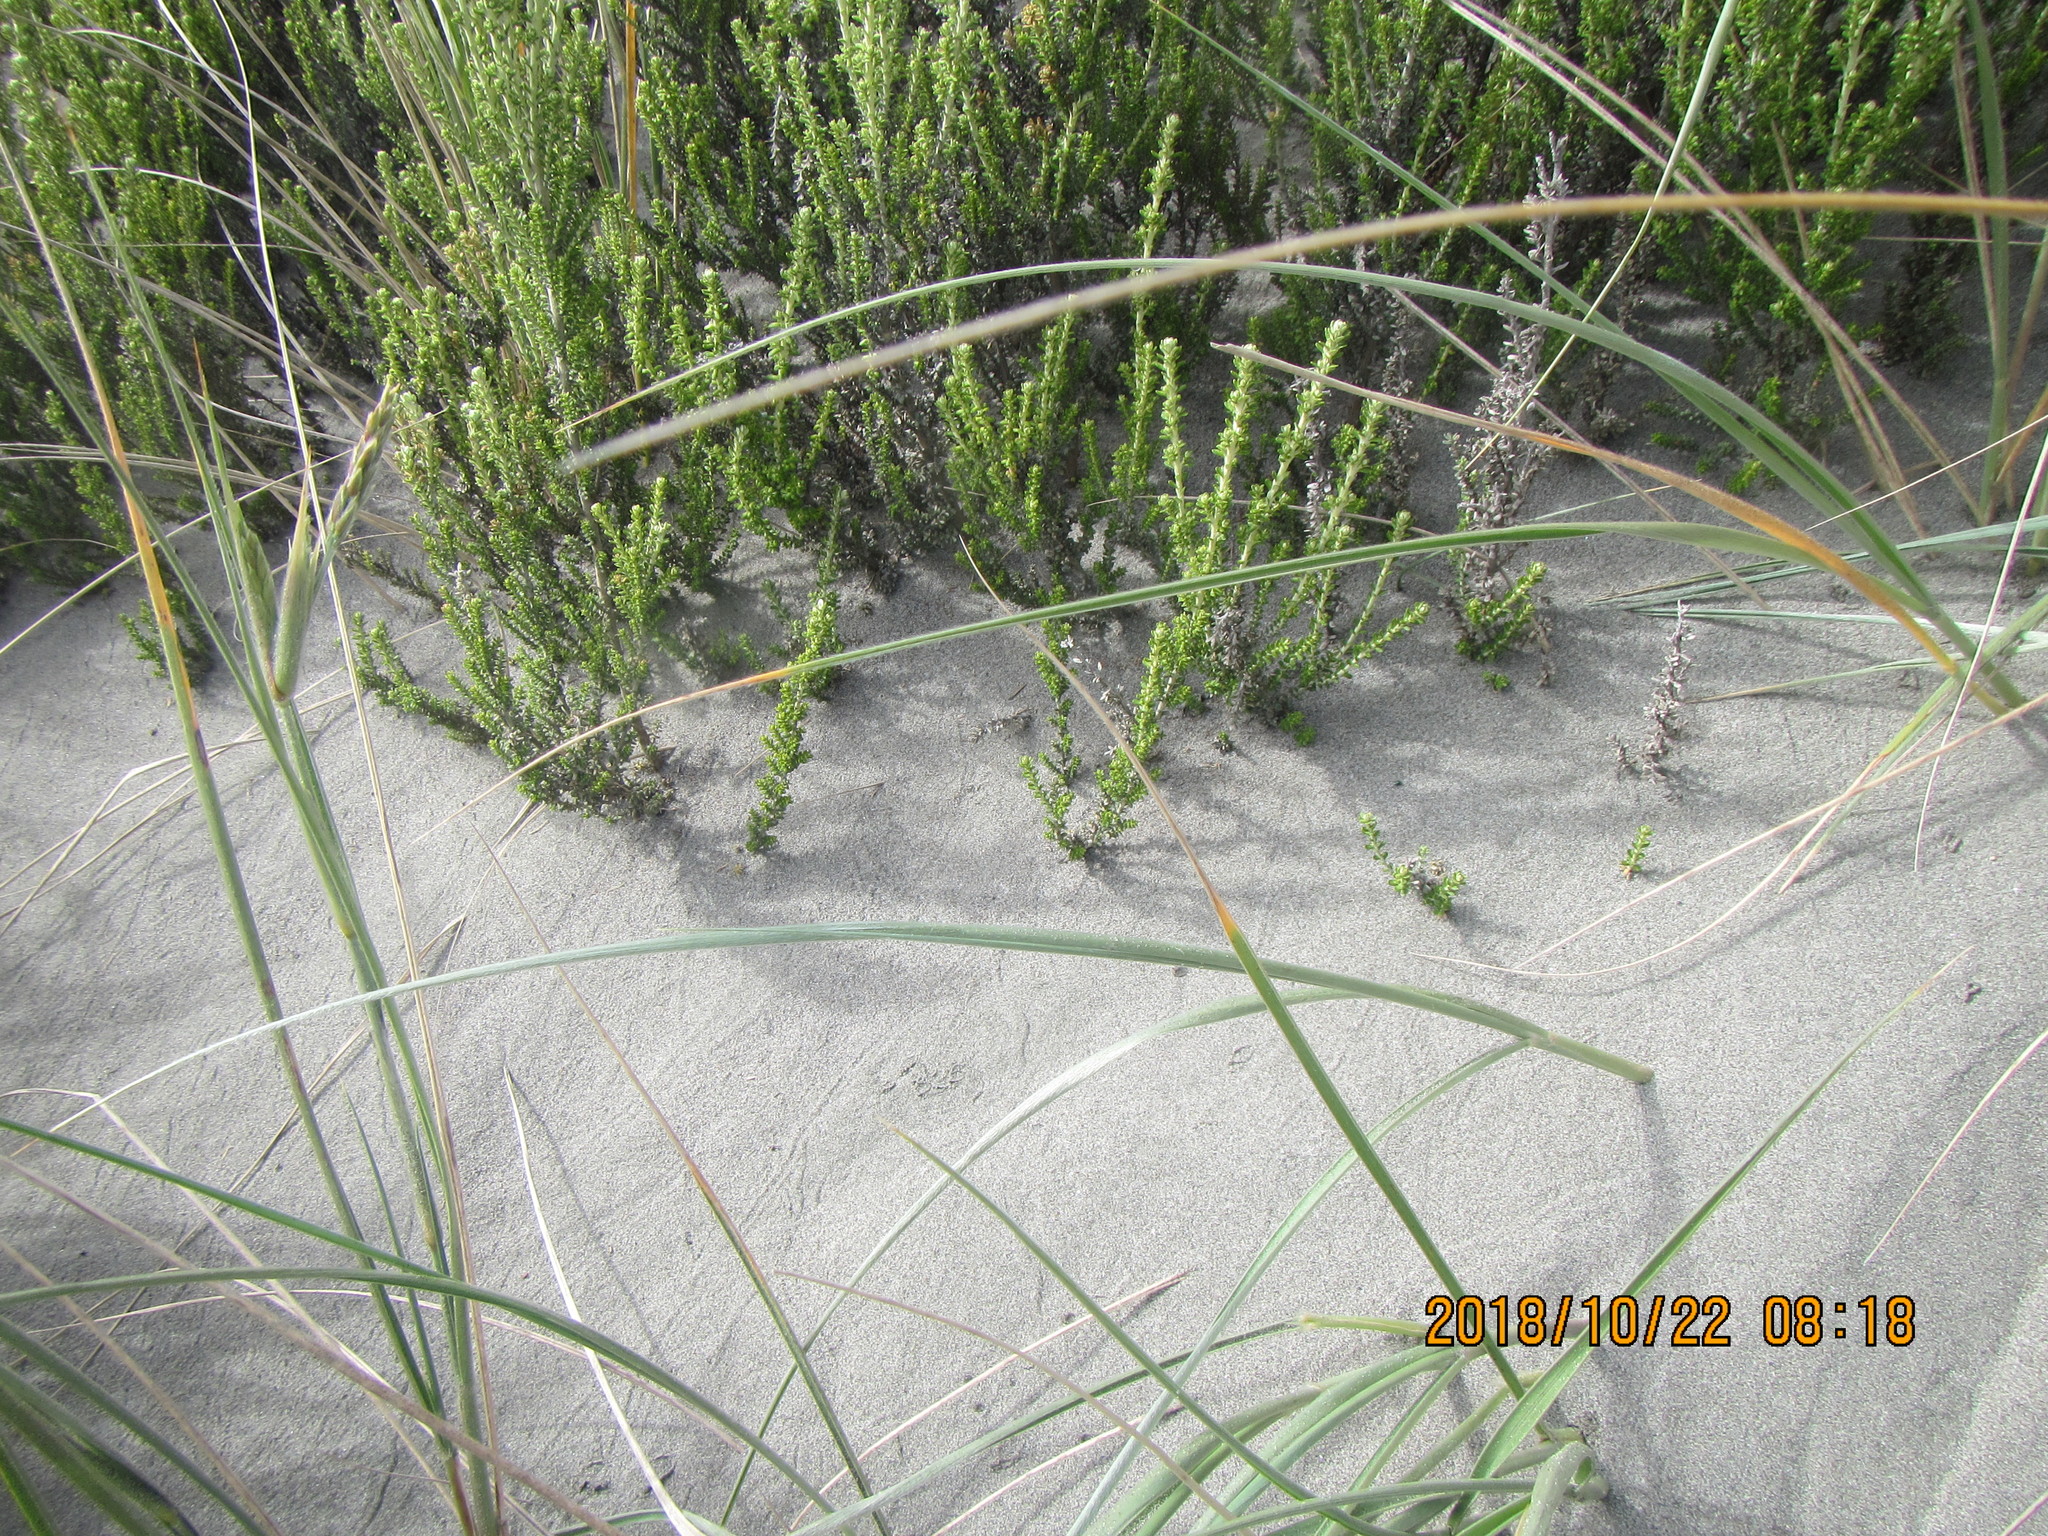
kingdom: Plantae
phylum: Tracheophyta
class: Magnoliopsida
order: Asterales
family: Asteraceae
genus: Ozothamnus
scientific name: Ozothamnus leptophyllus
